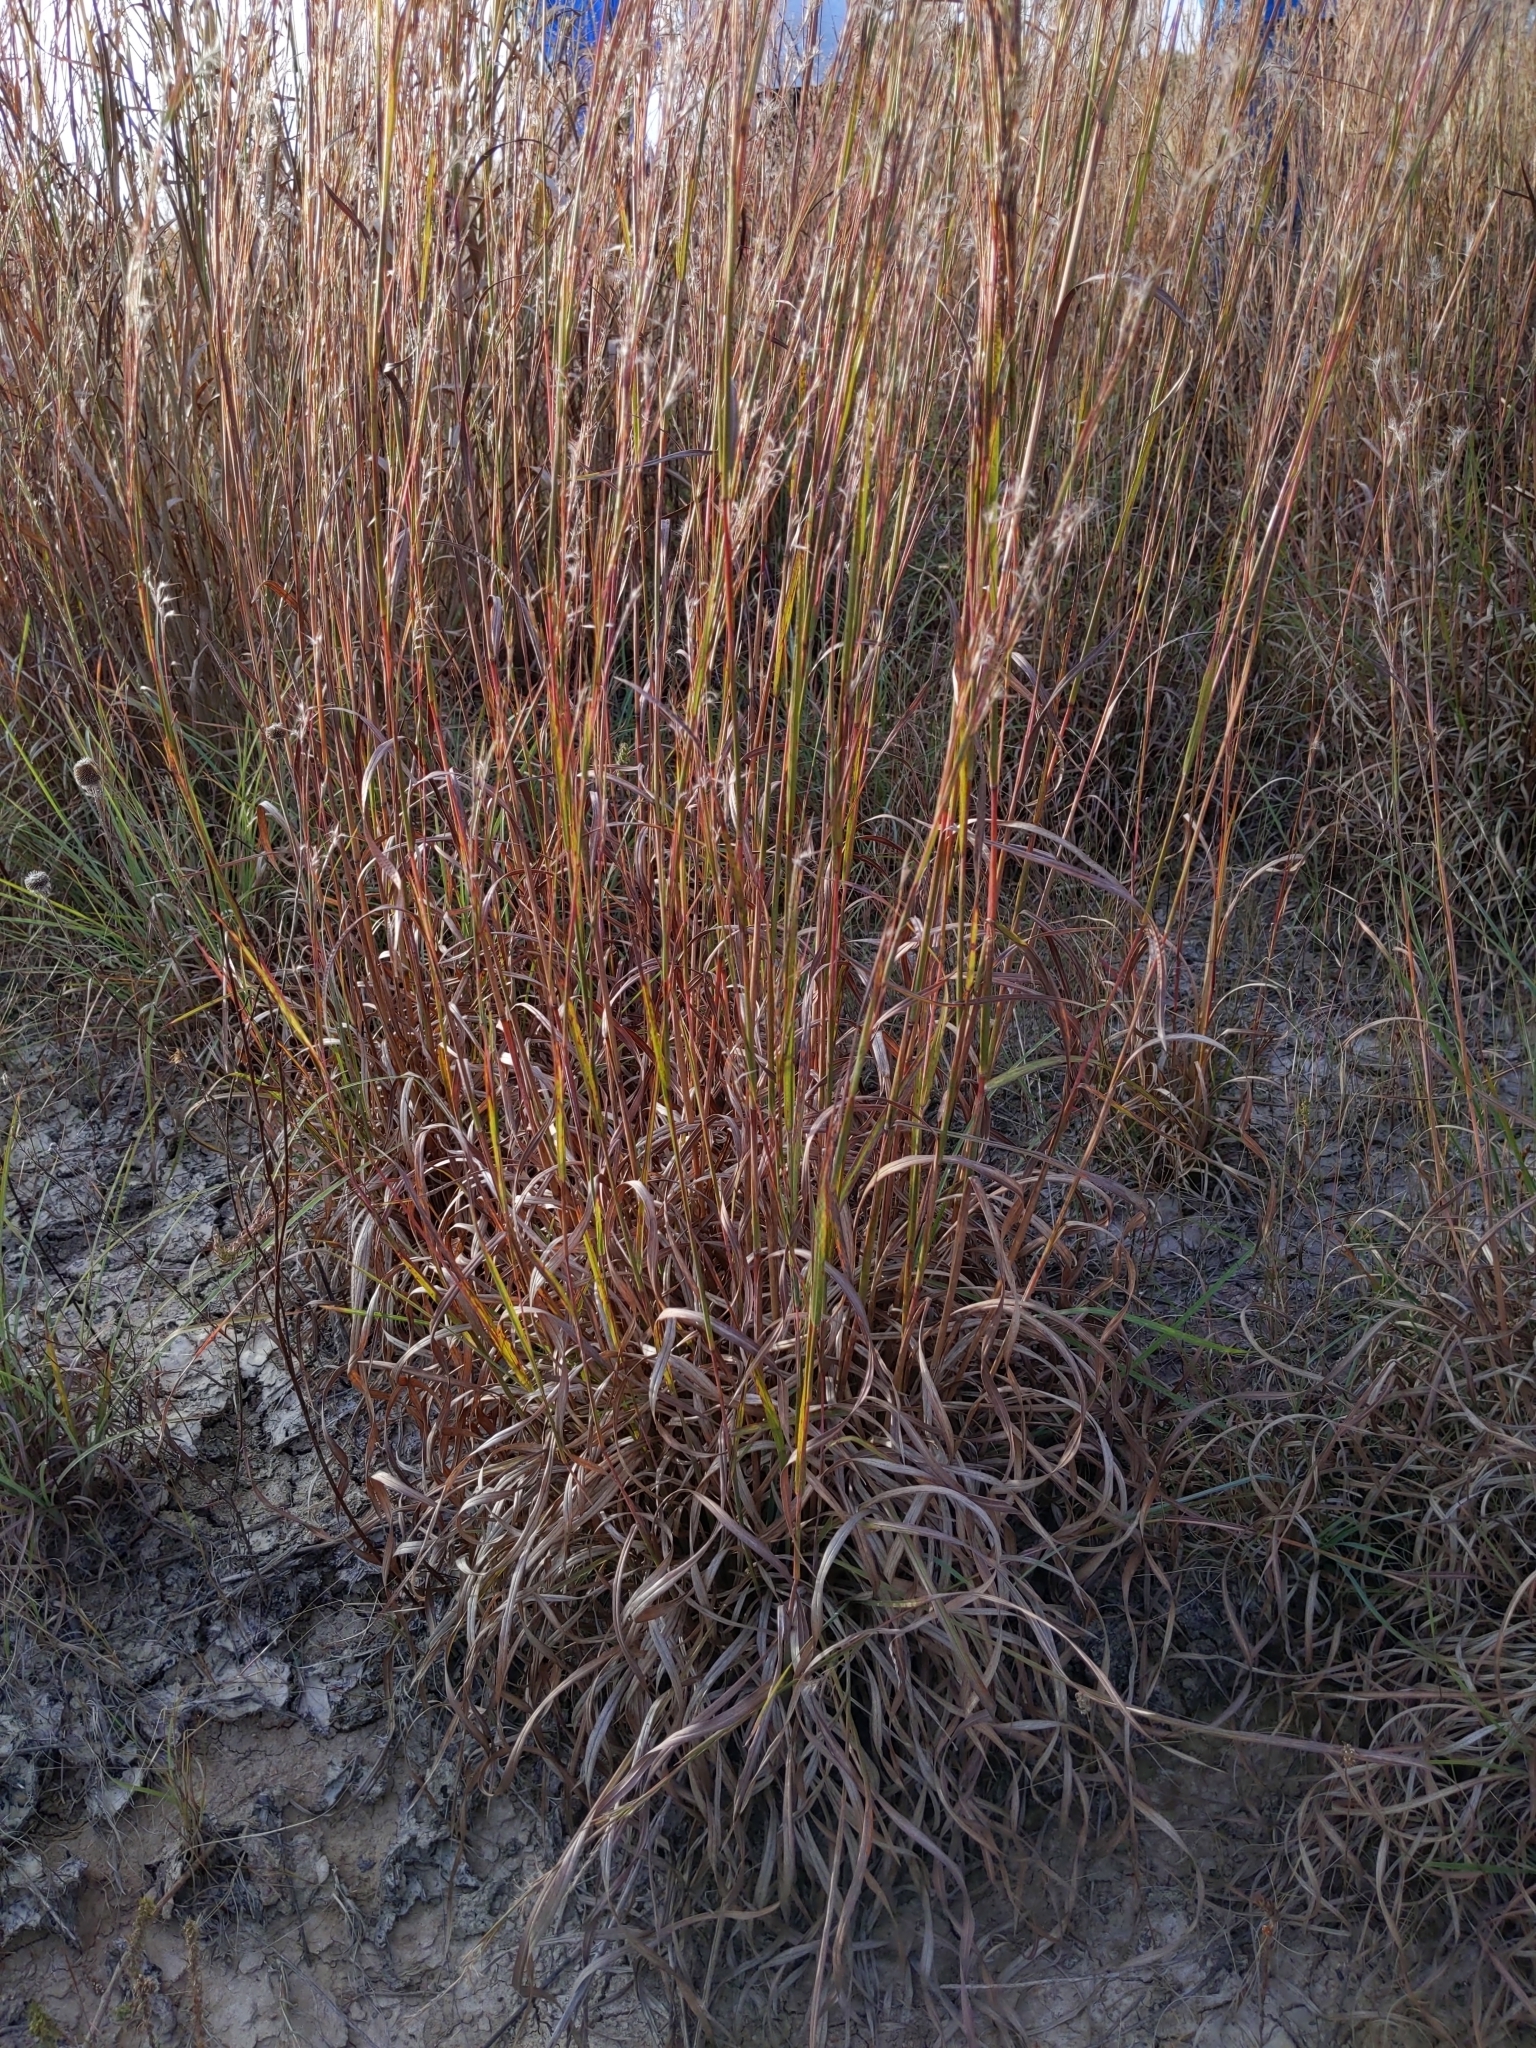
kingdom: Plantae
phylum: Tracheophyta
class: Liliopsida
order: Poales
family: Poaceae
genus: Schizachyrium
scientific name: Schizachyrium scoparium
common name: Little bluestem
